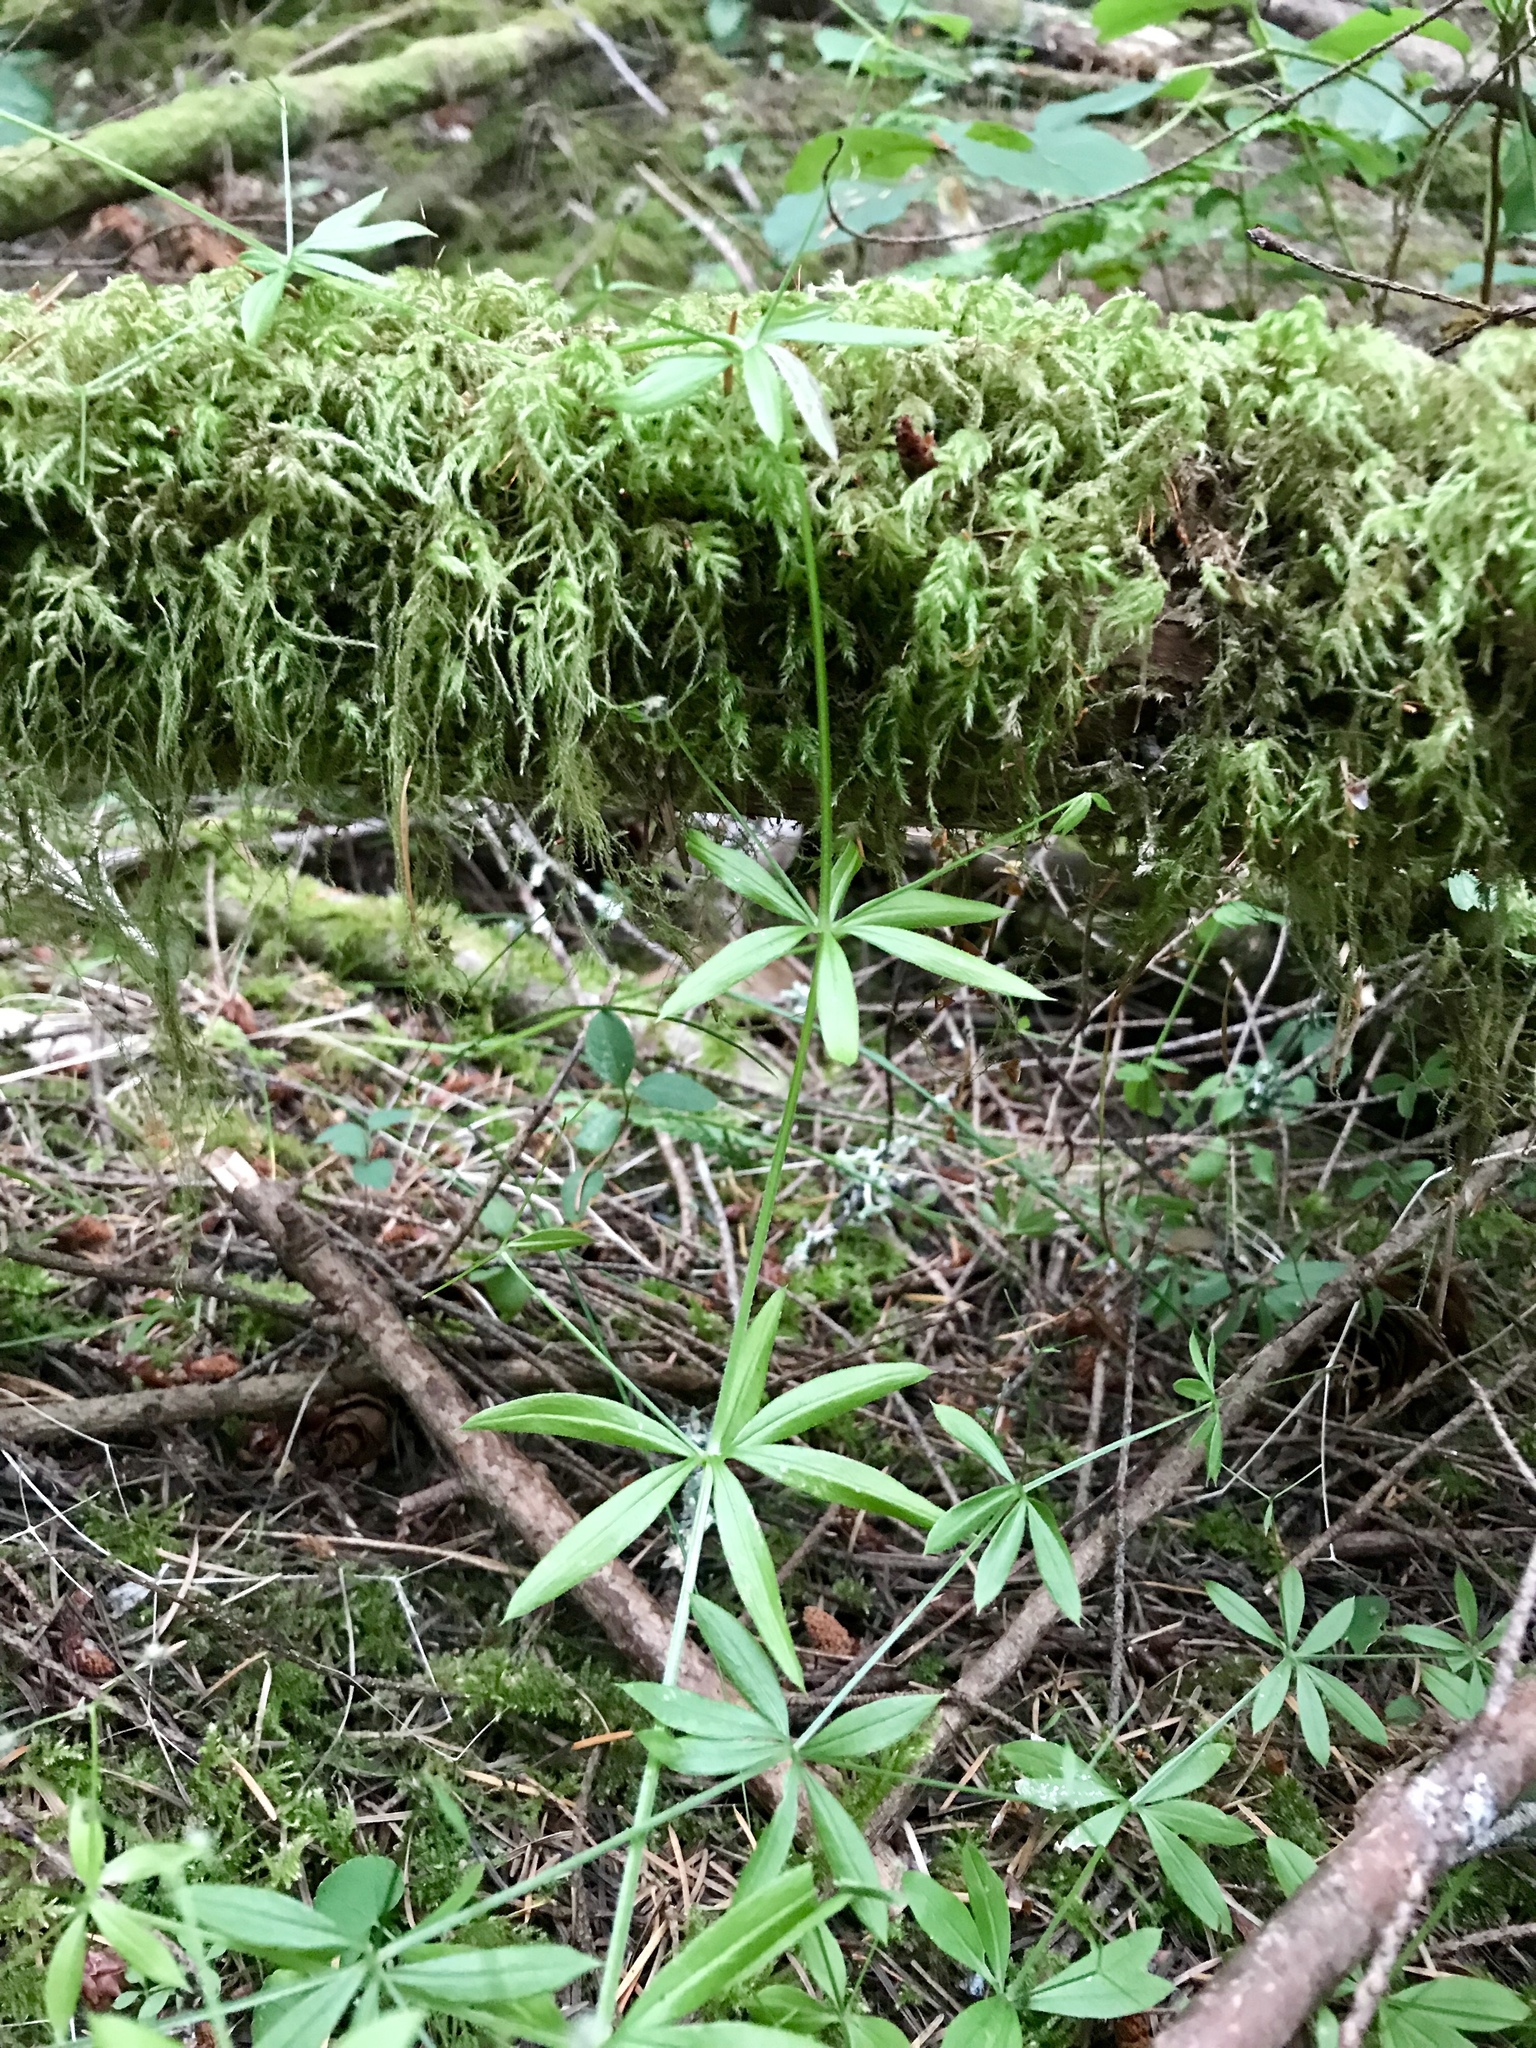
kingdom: Plantae
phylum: Tracheophyta
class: Magnoliopsida
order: Gentianales
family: Rubiaceae
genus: Galium
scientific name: Galium triflorum
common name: Fragrant bedstraw
